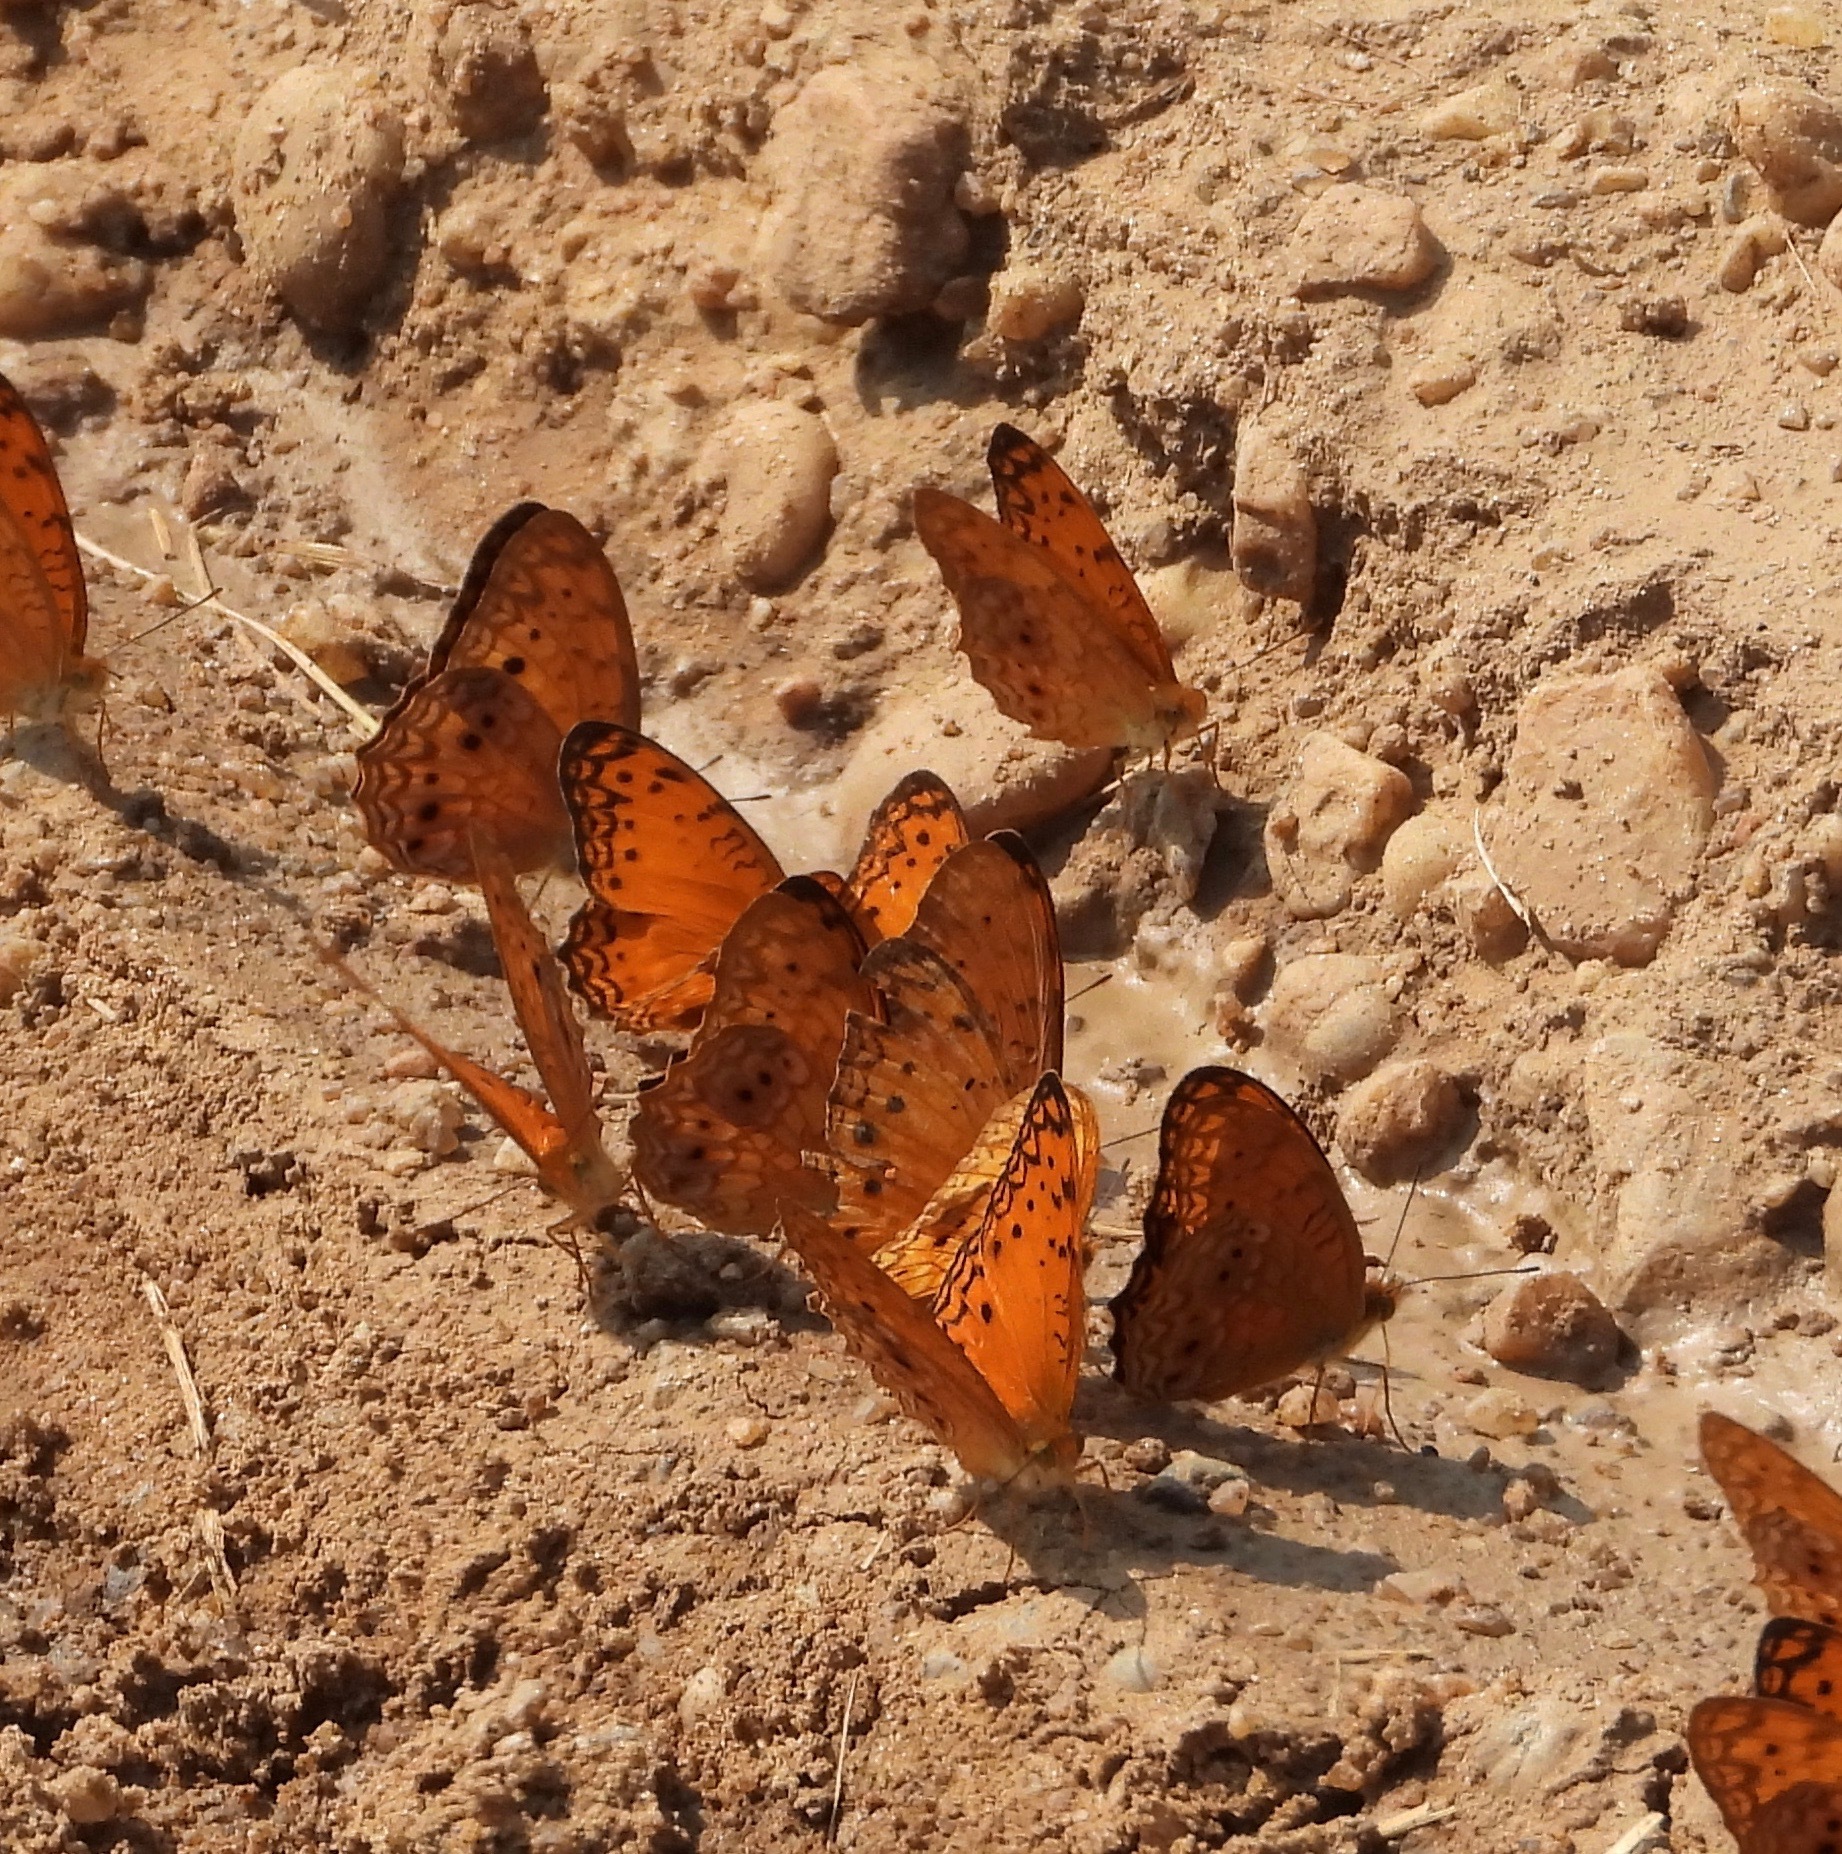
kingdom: Animalia
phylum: Arthropoda
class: Insecta
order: Lepidoptera
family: Nymphalidae
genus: Phalanta
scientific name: Phalanta columbina
